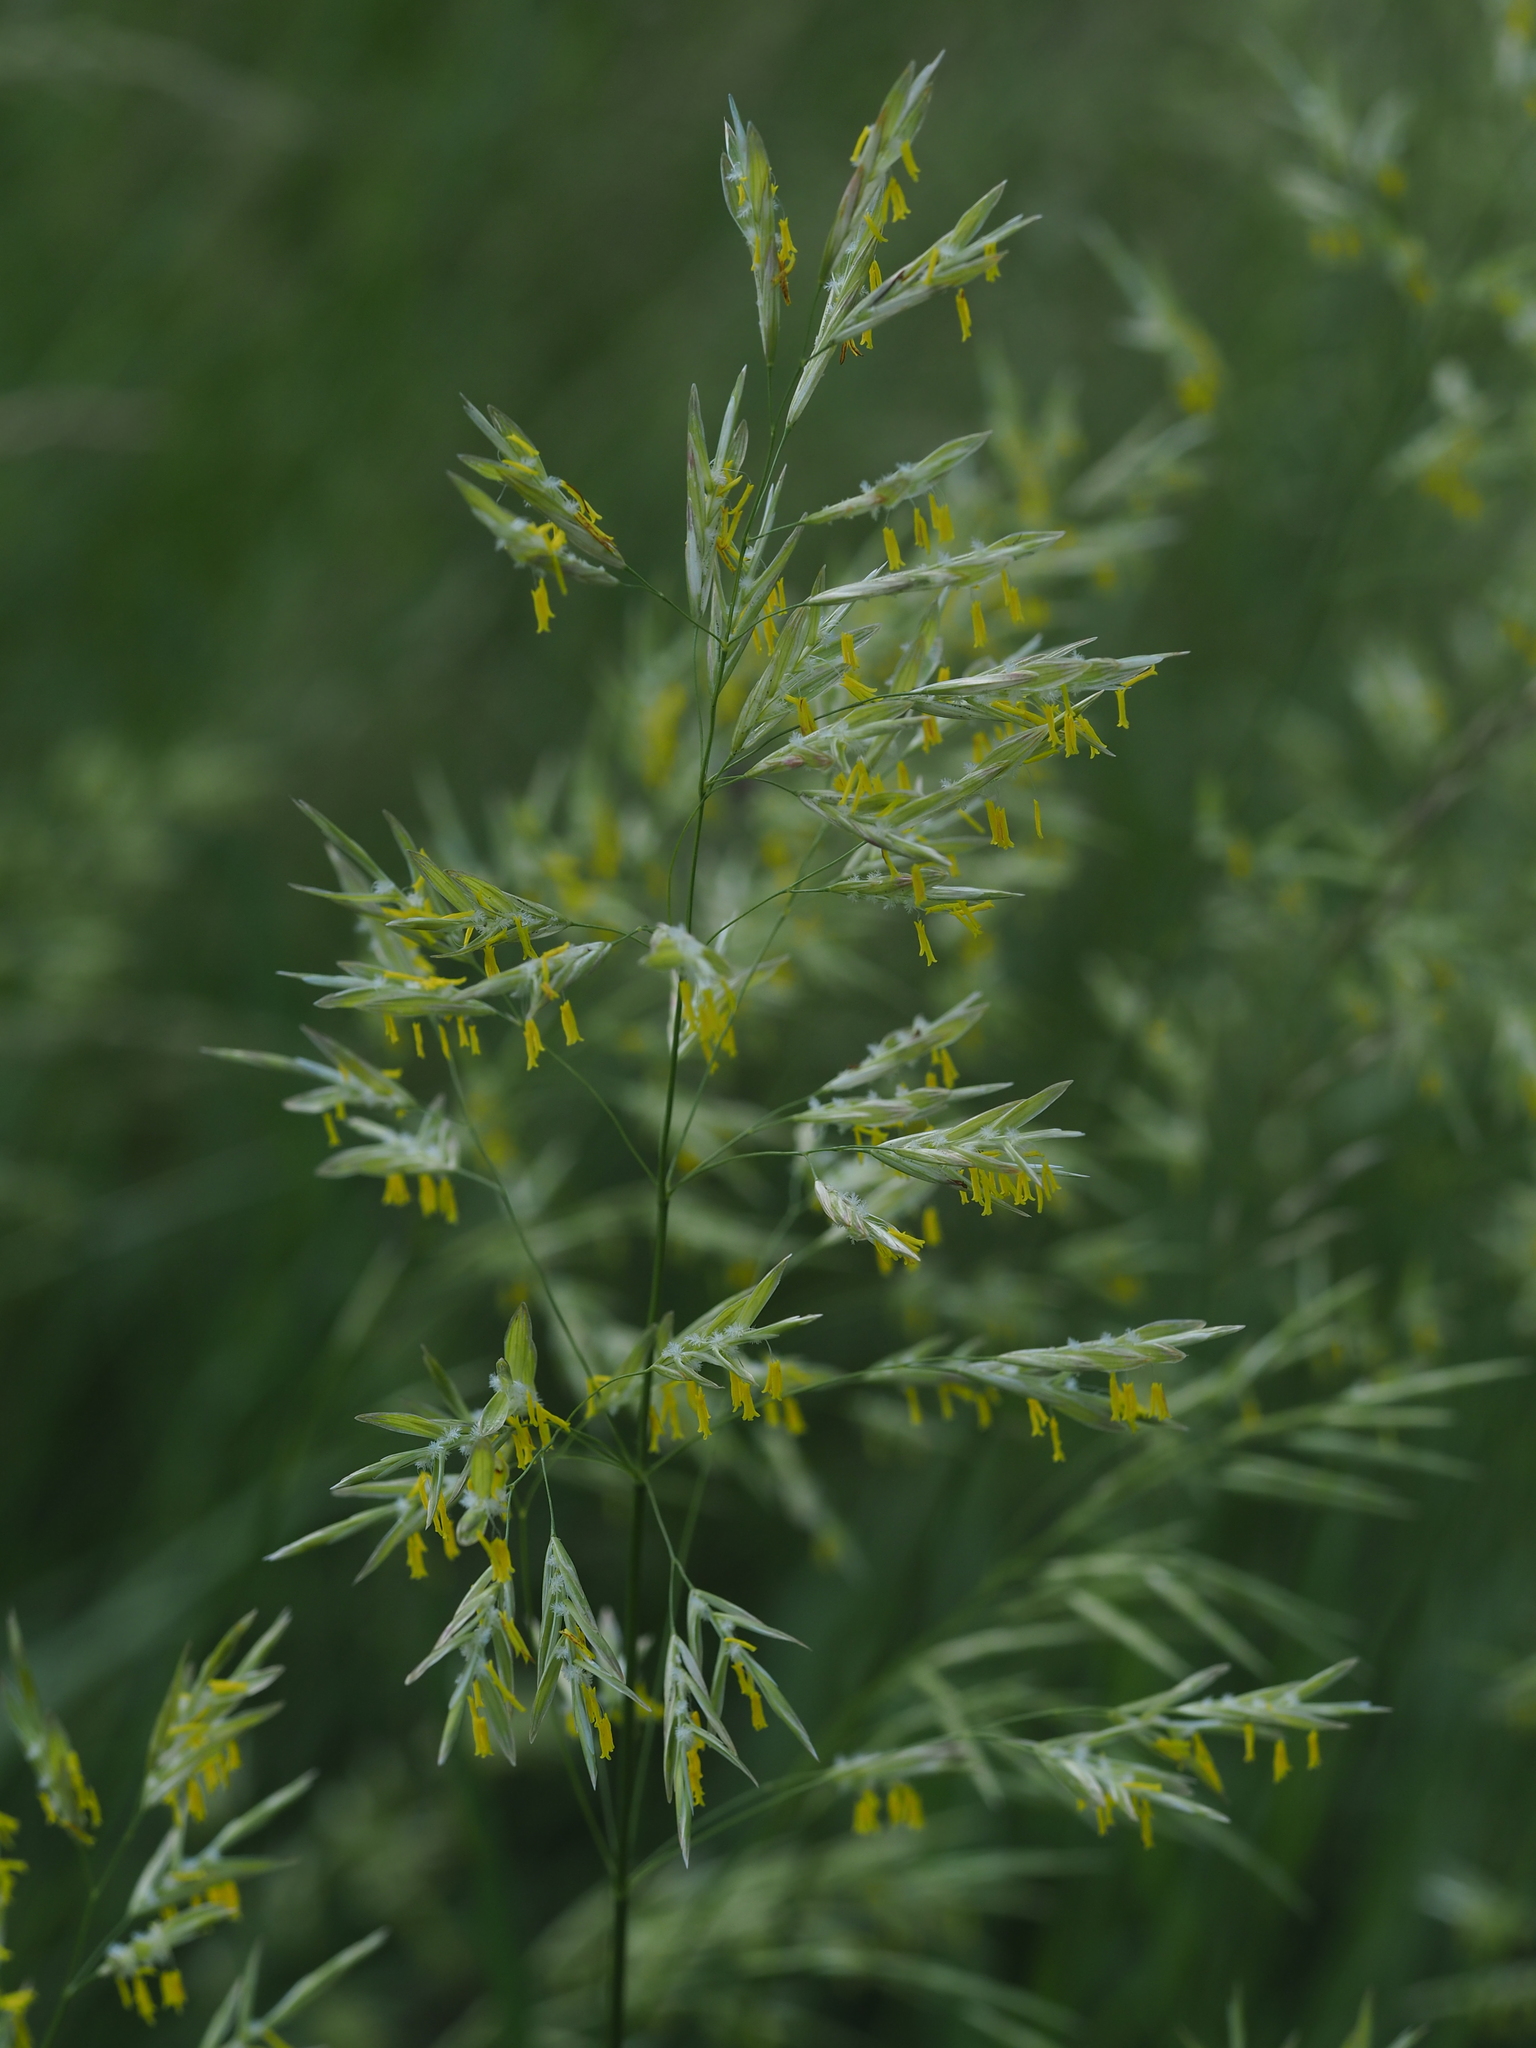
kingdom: Plantae
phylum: Tracheophyta
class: Liliopsida
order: Poales
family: Poaceae
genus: Bromus
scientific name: Bromus inermis
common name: Smooth brome
